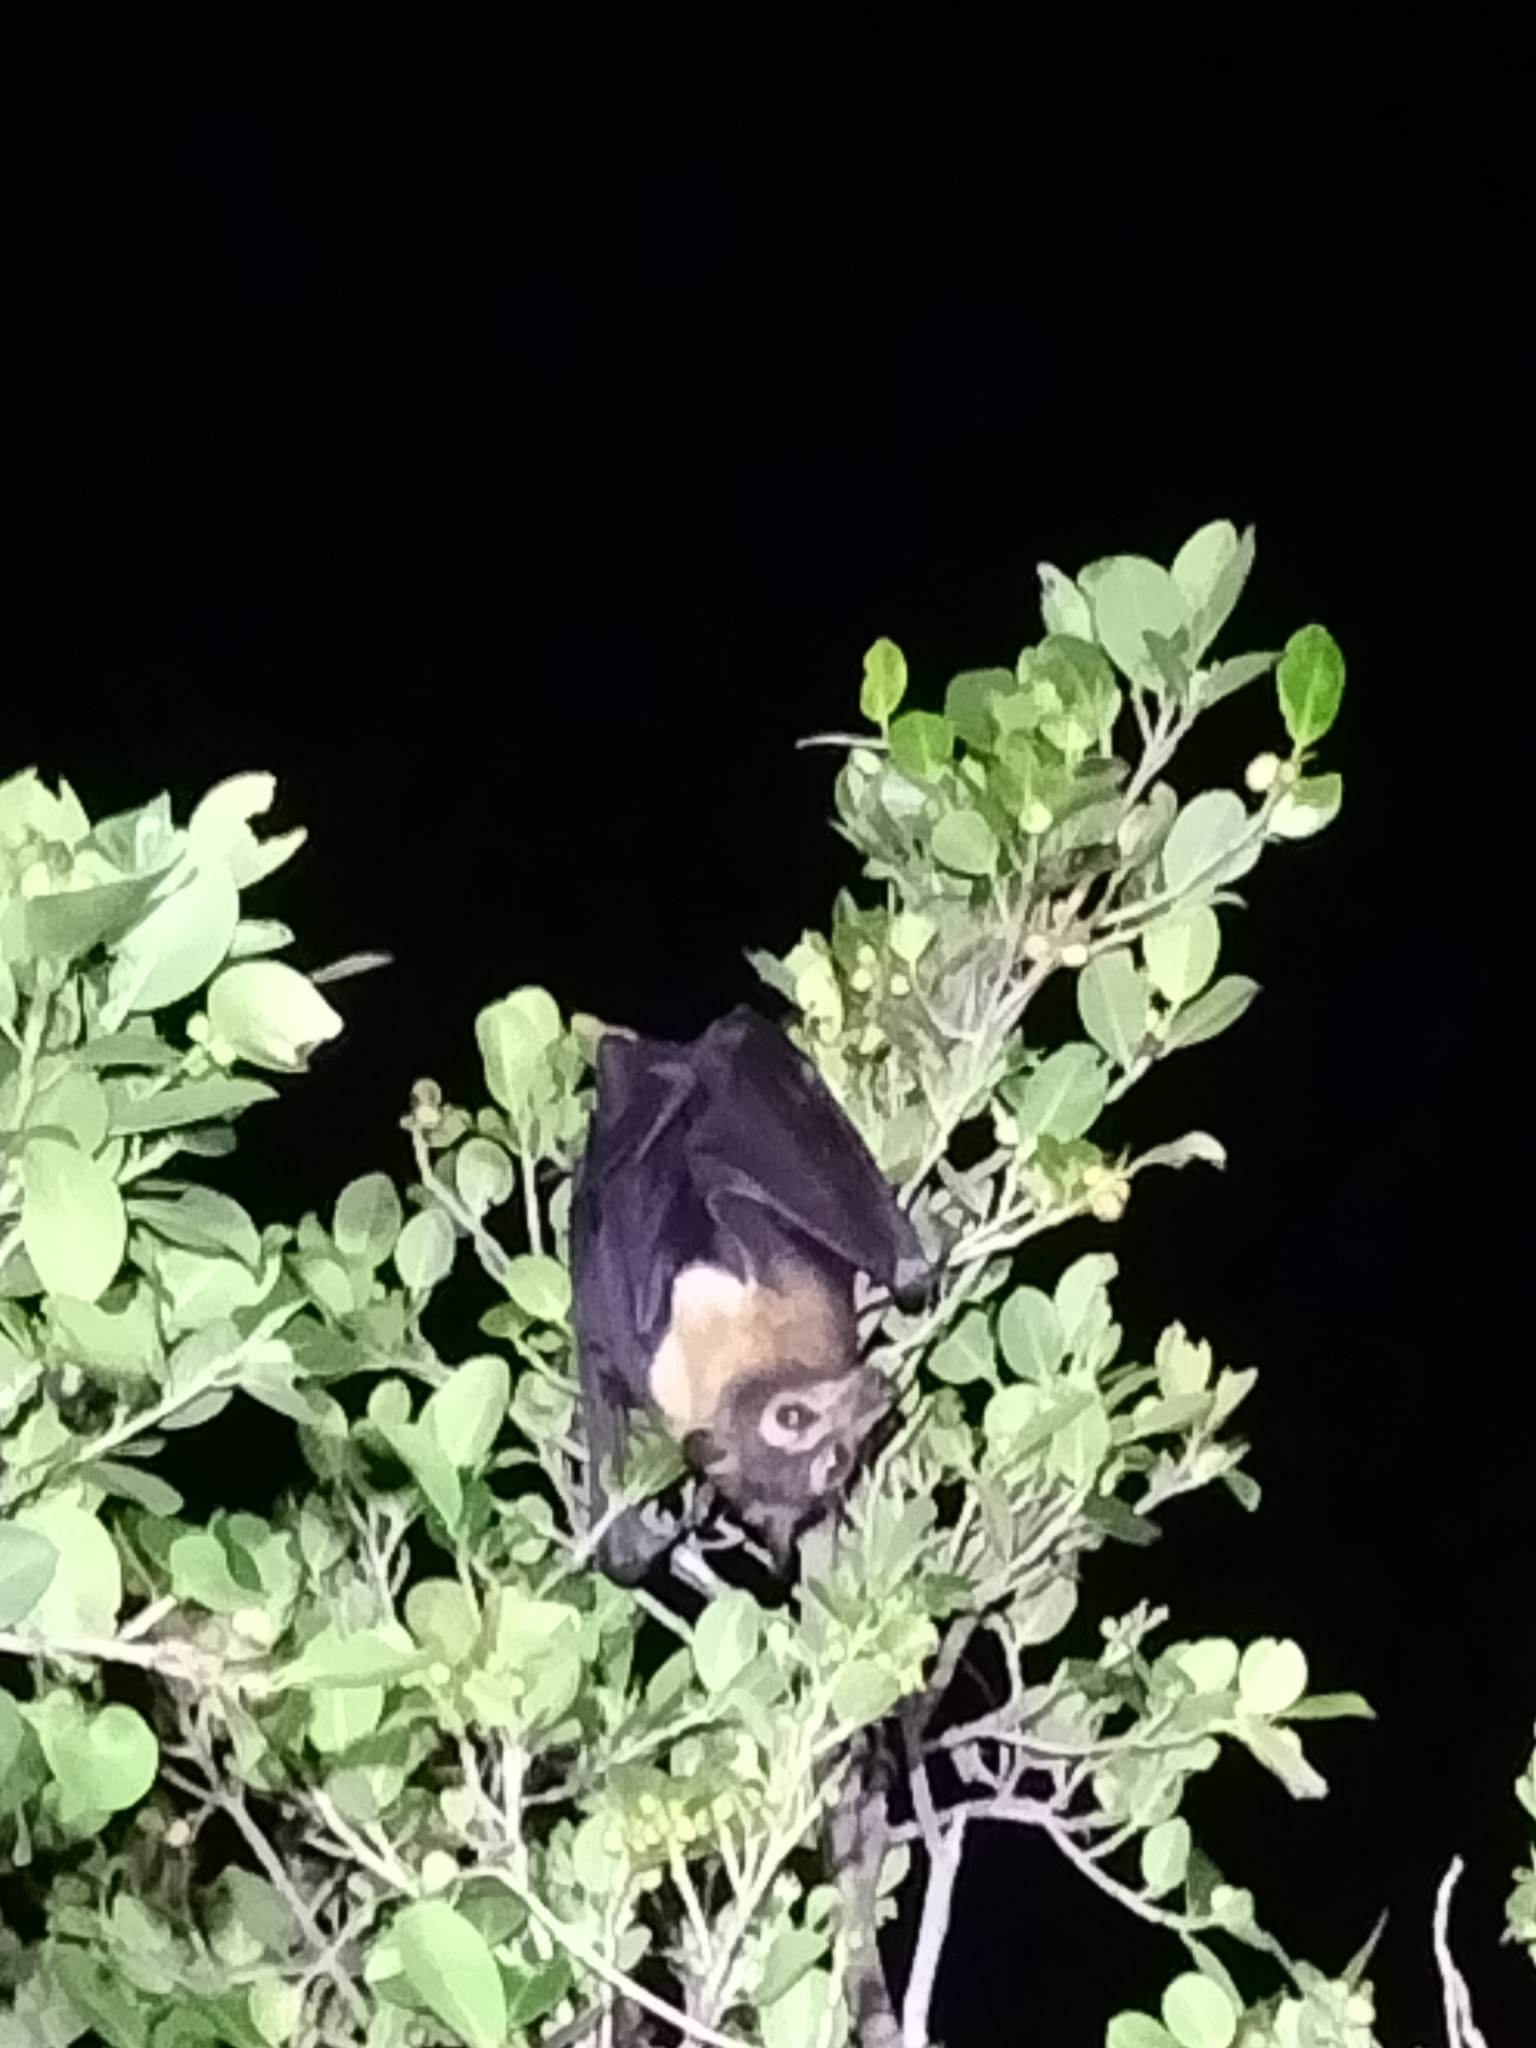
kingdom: Animalia
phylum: Chordata
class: Mammalia
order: Chiroptera
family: Pteropodidae
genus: Pteropus
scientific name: Pteropus conspicillatus
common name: Spectacled flying fox
